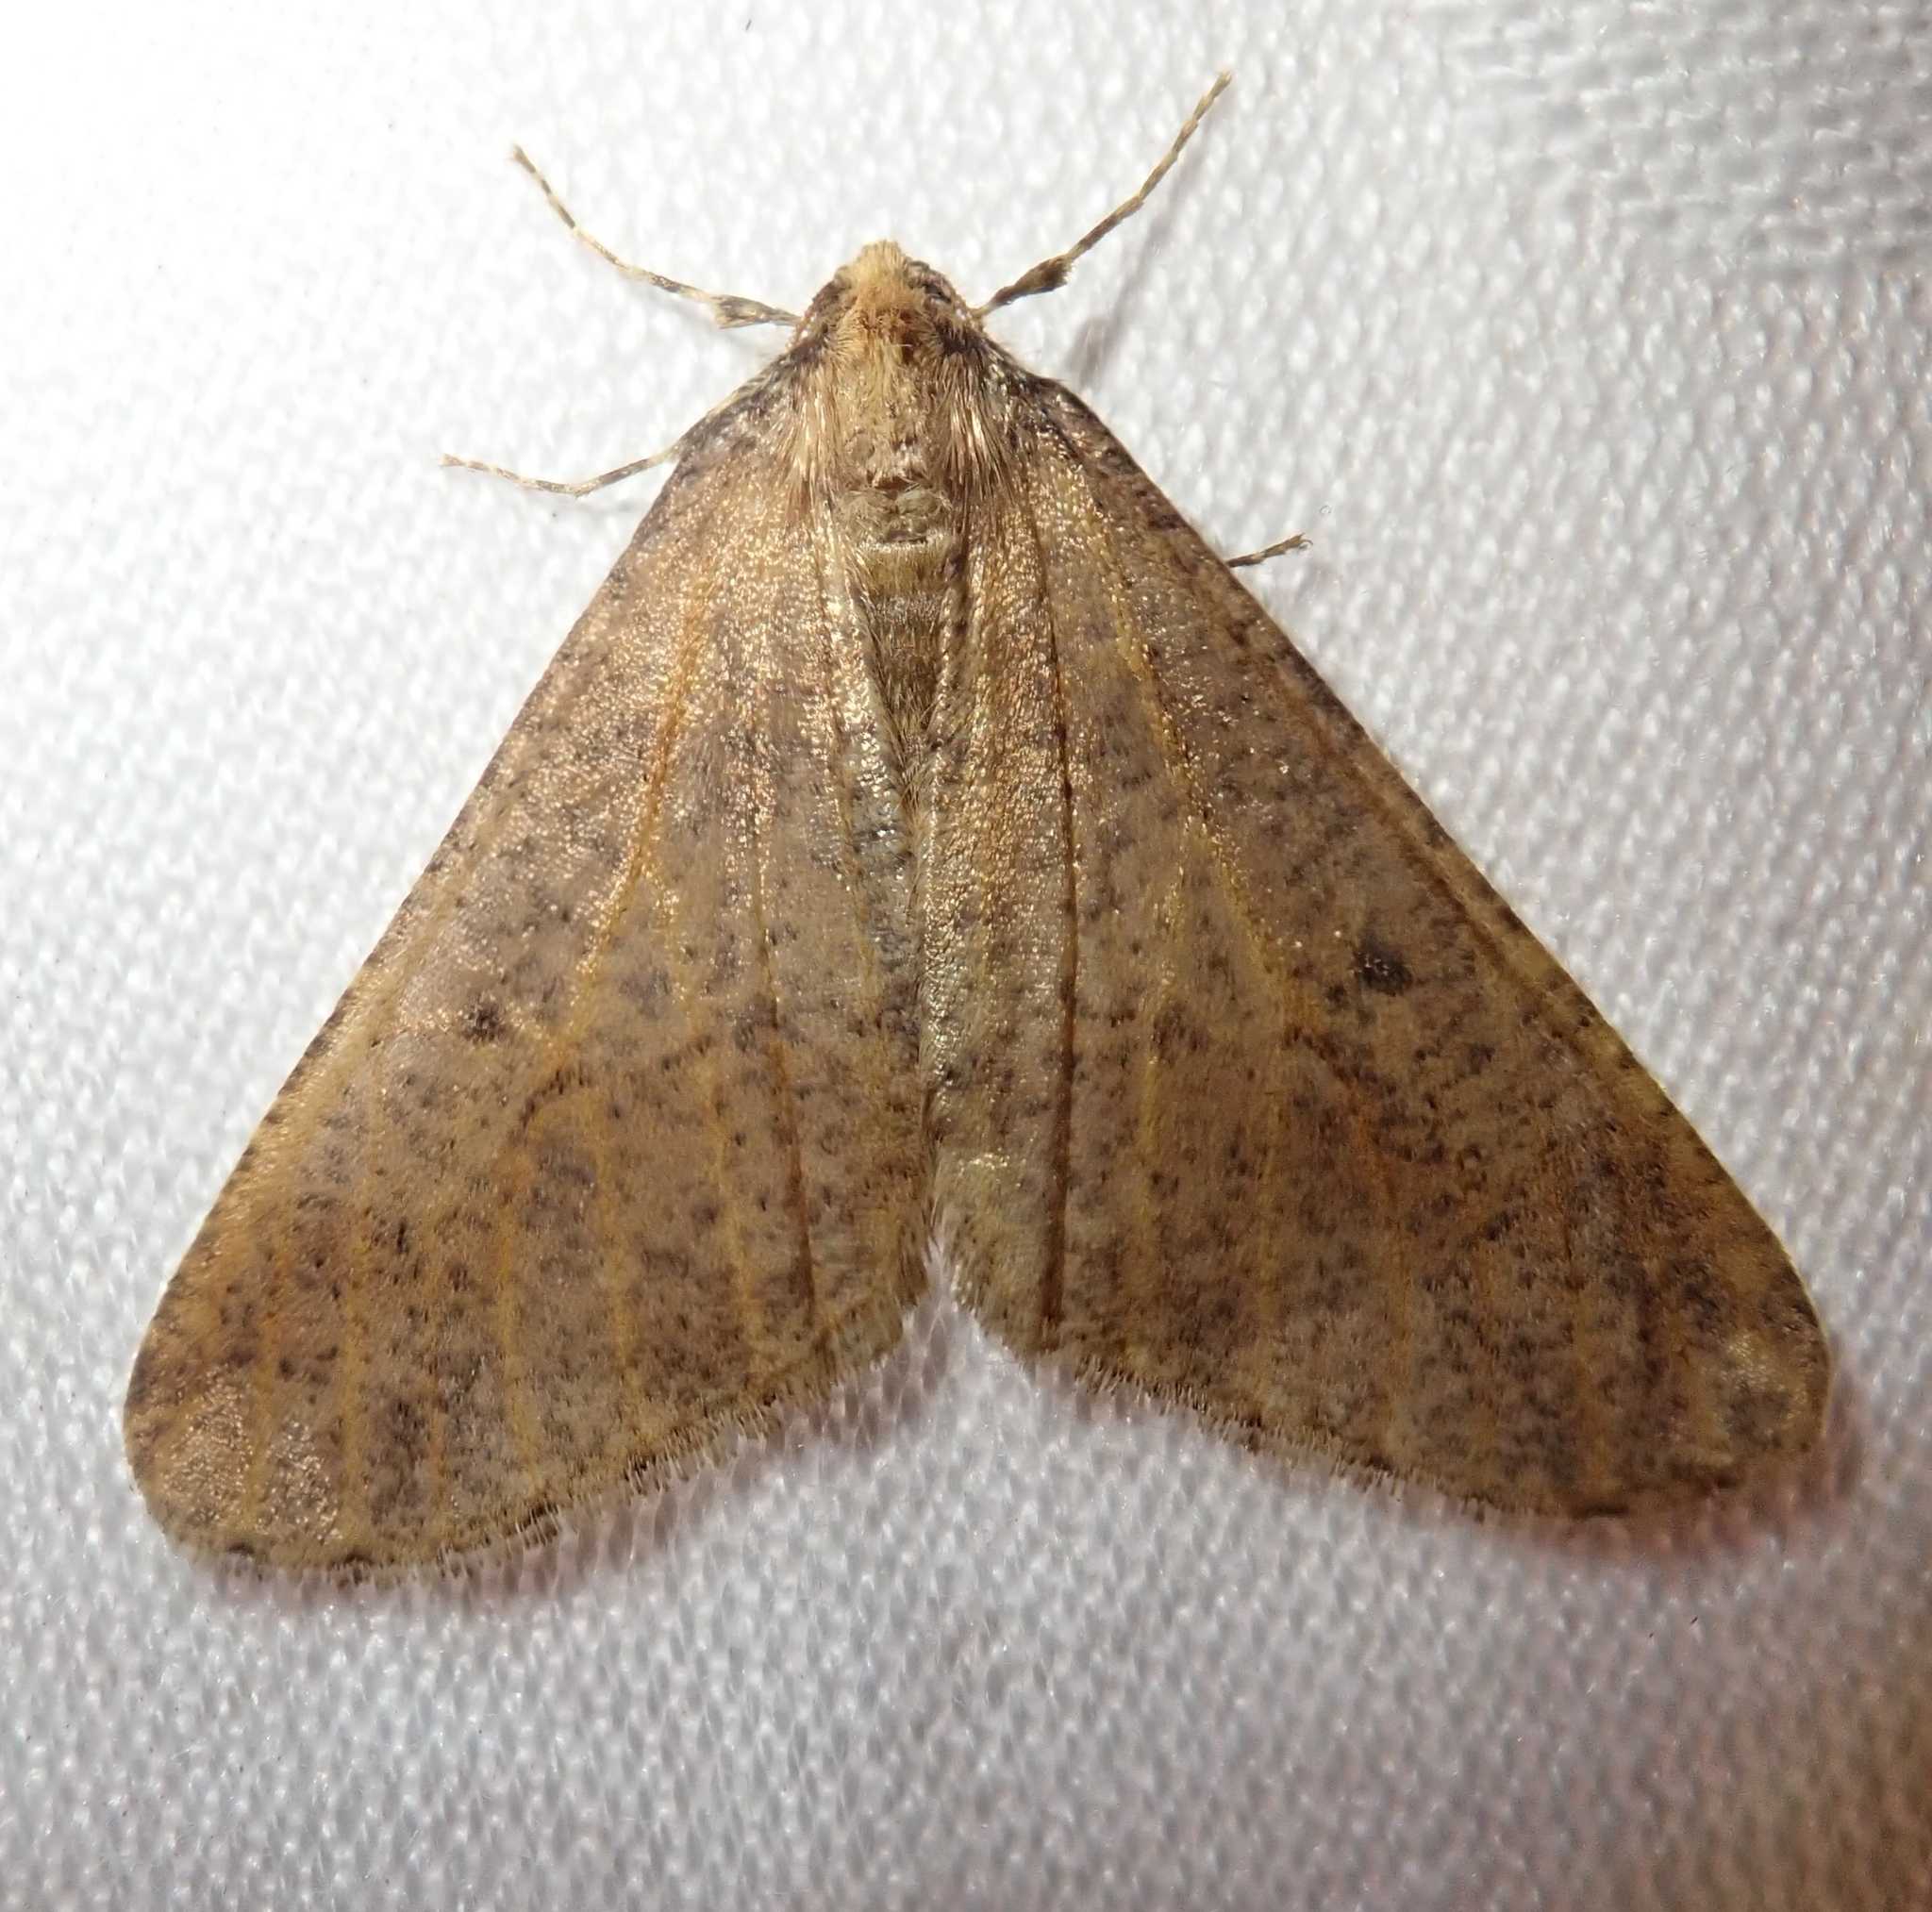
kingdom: Animalia
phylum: Arthropoda
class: Insecta
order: Lepidoptera
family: Geometridae
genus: Erannis
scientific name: Erannis defoliaria
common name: Mottled umber
